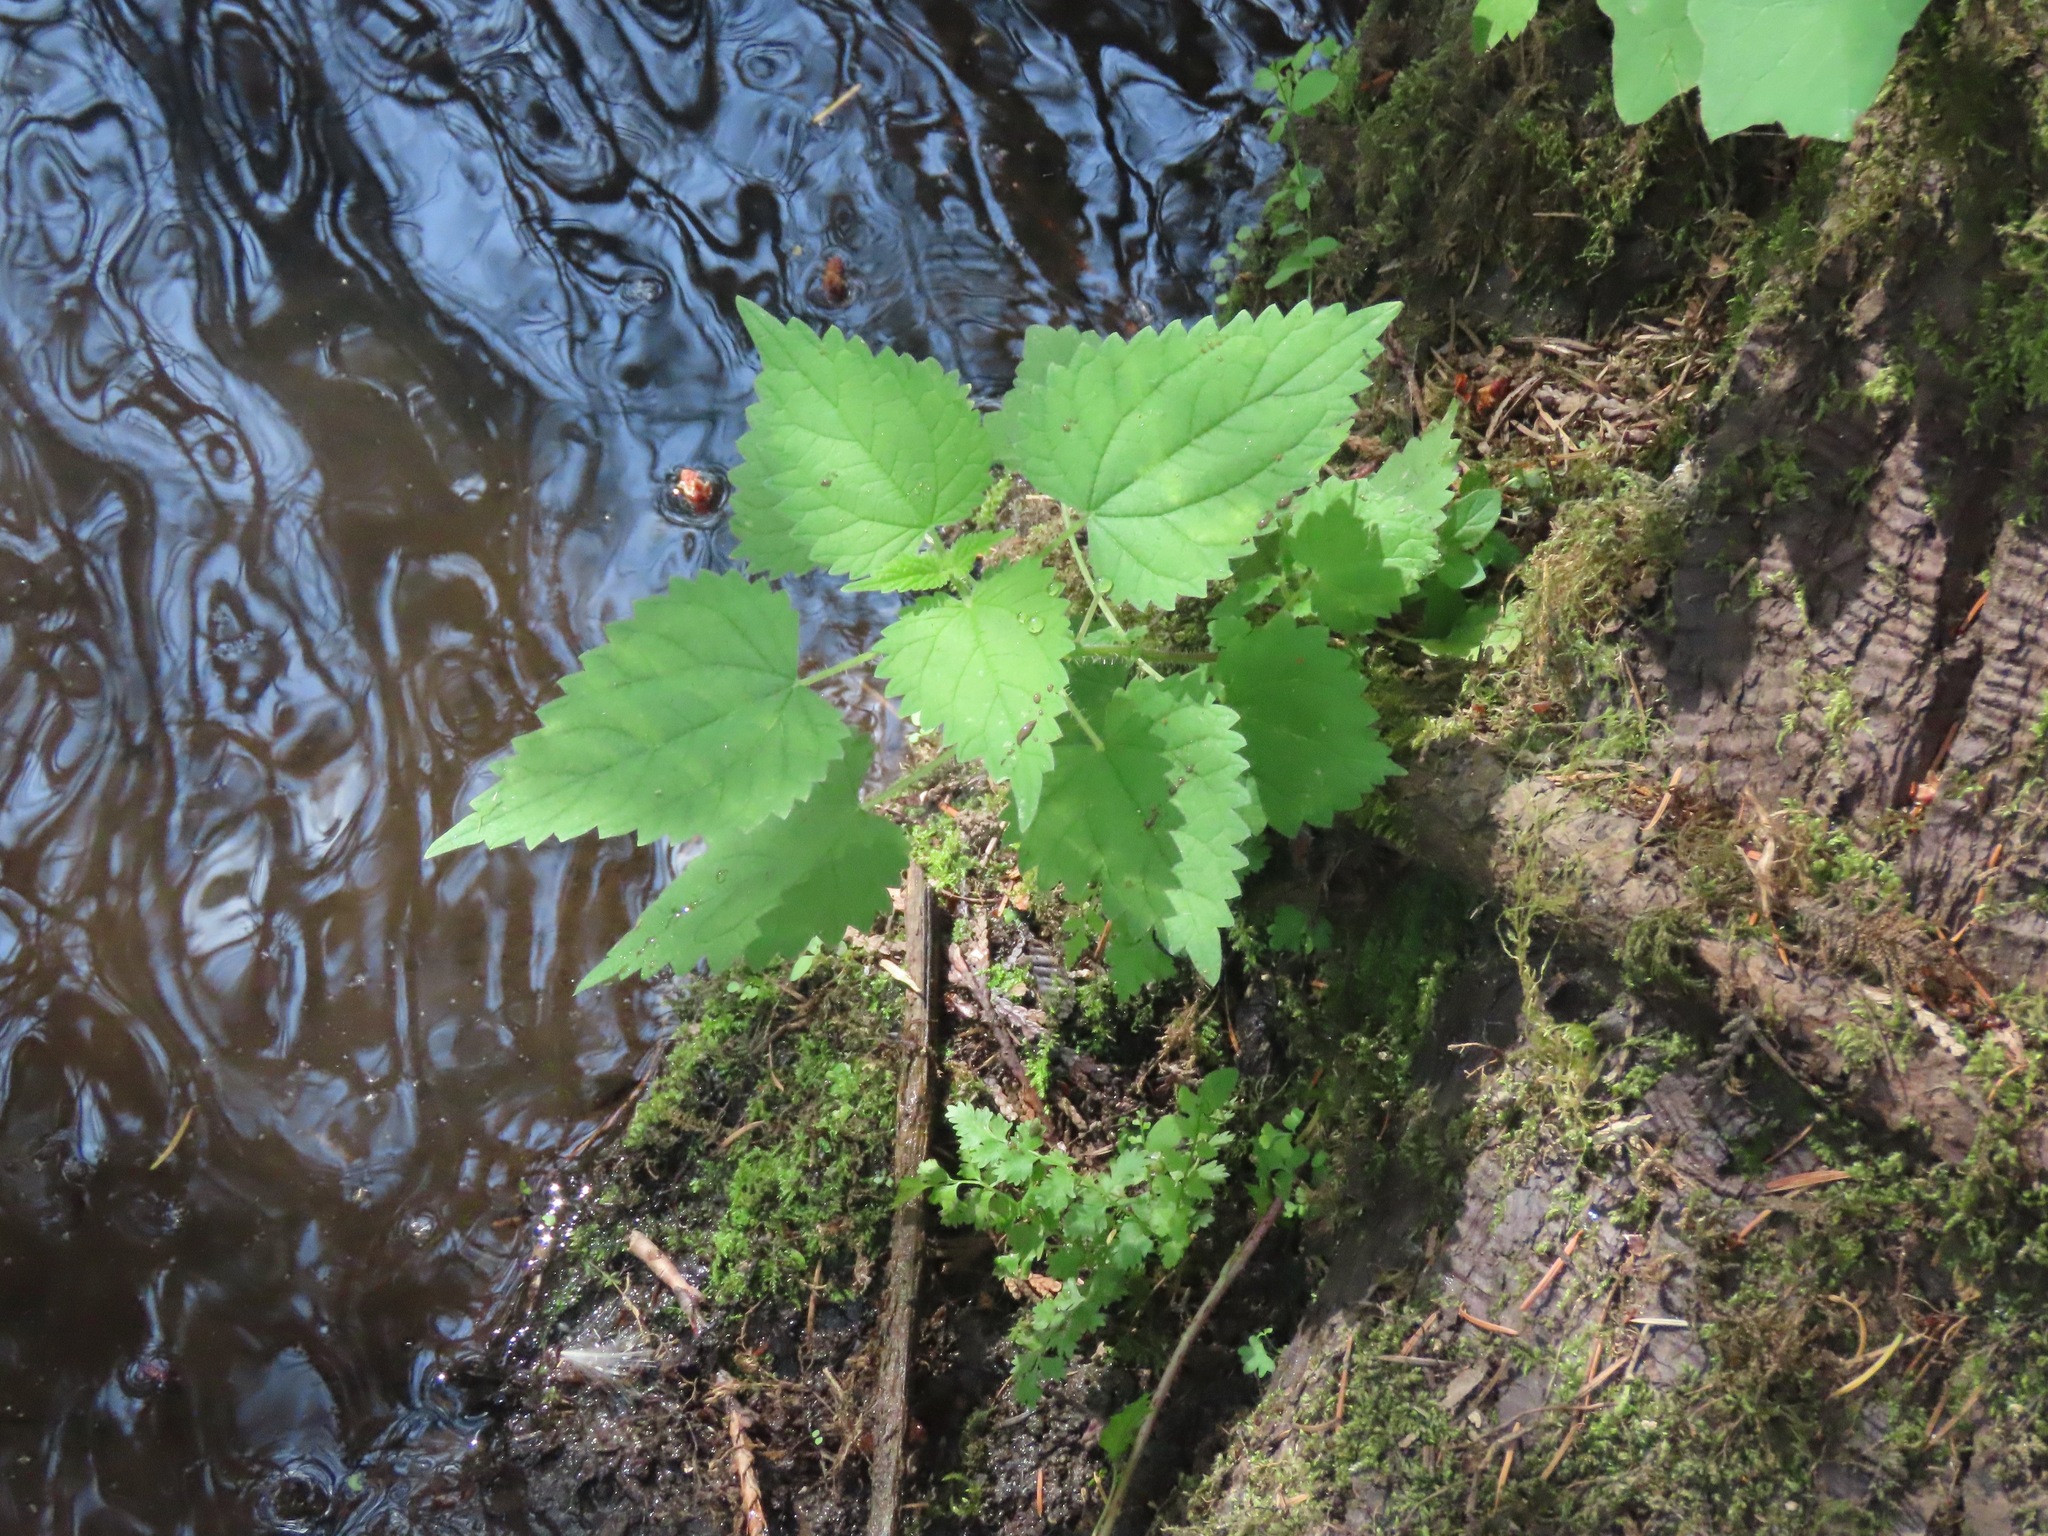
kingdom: Plantae
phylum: Tracheophyta
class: Magnoliopsida
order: Rosales
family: Urticaceae
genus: Urtica
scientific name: Urtica dioica
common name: Common nettle
